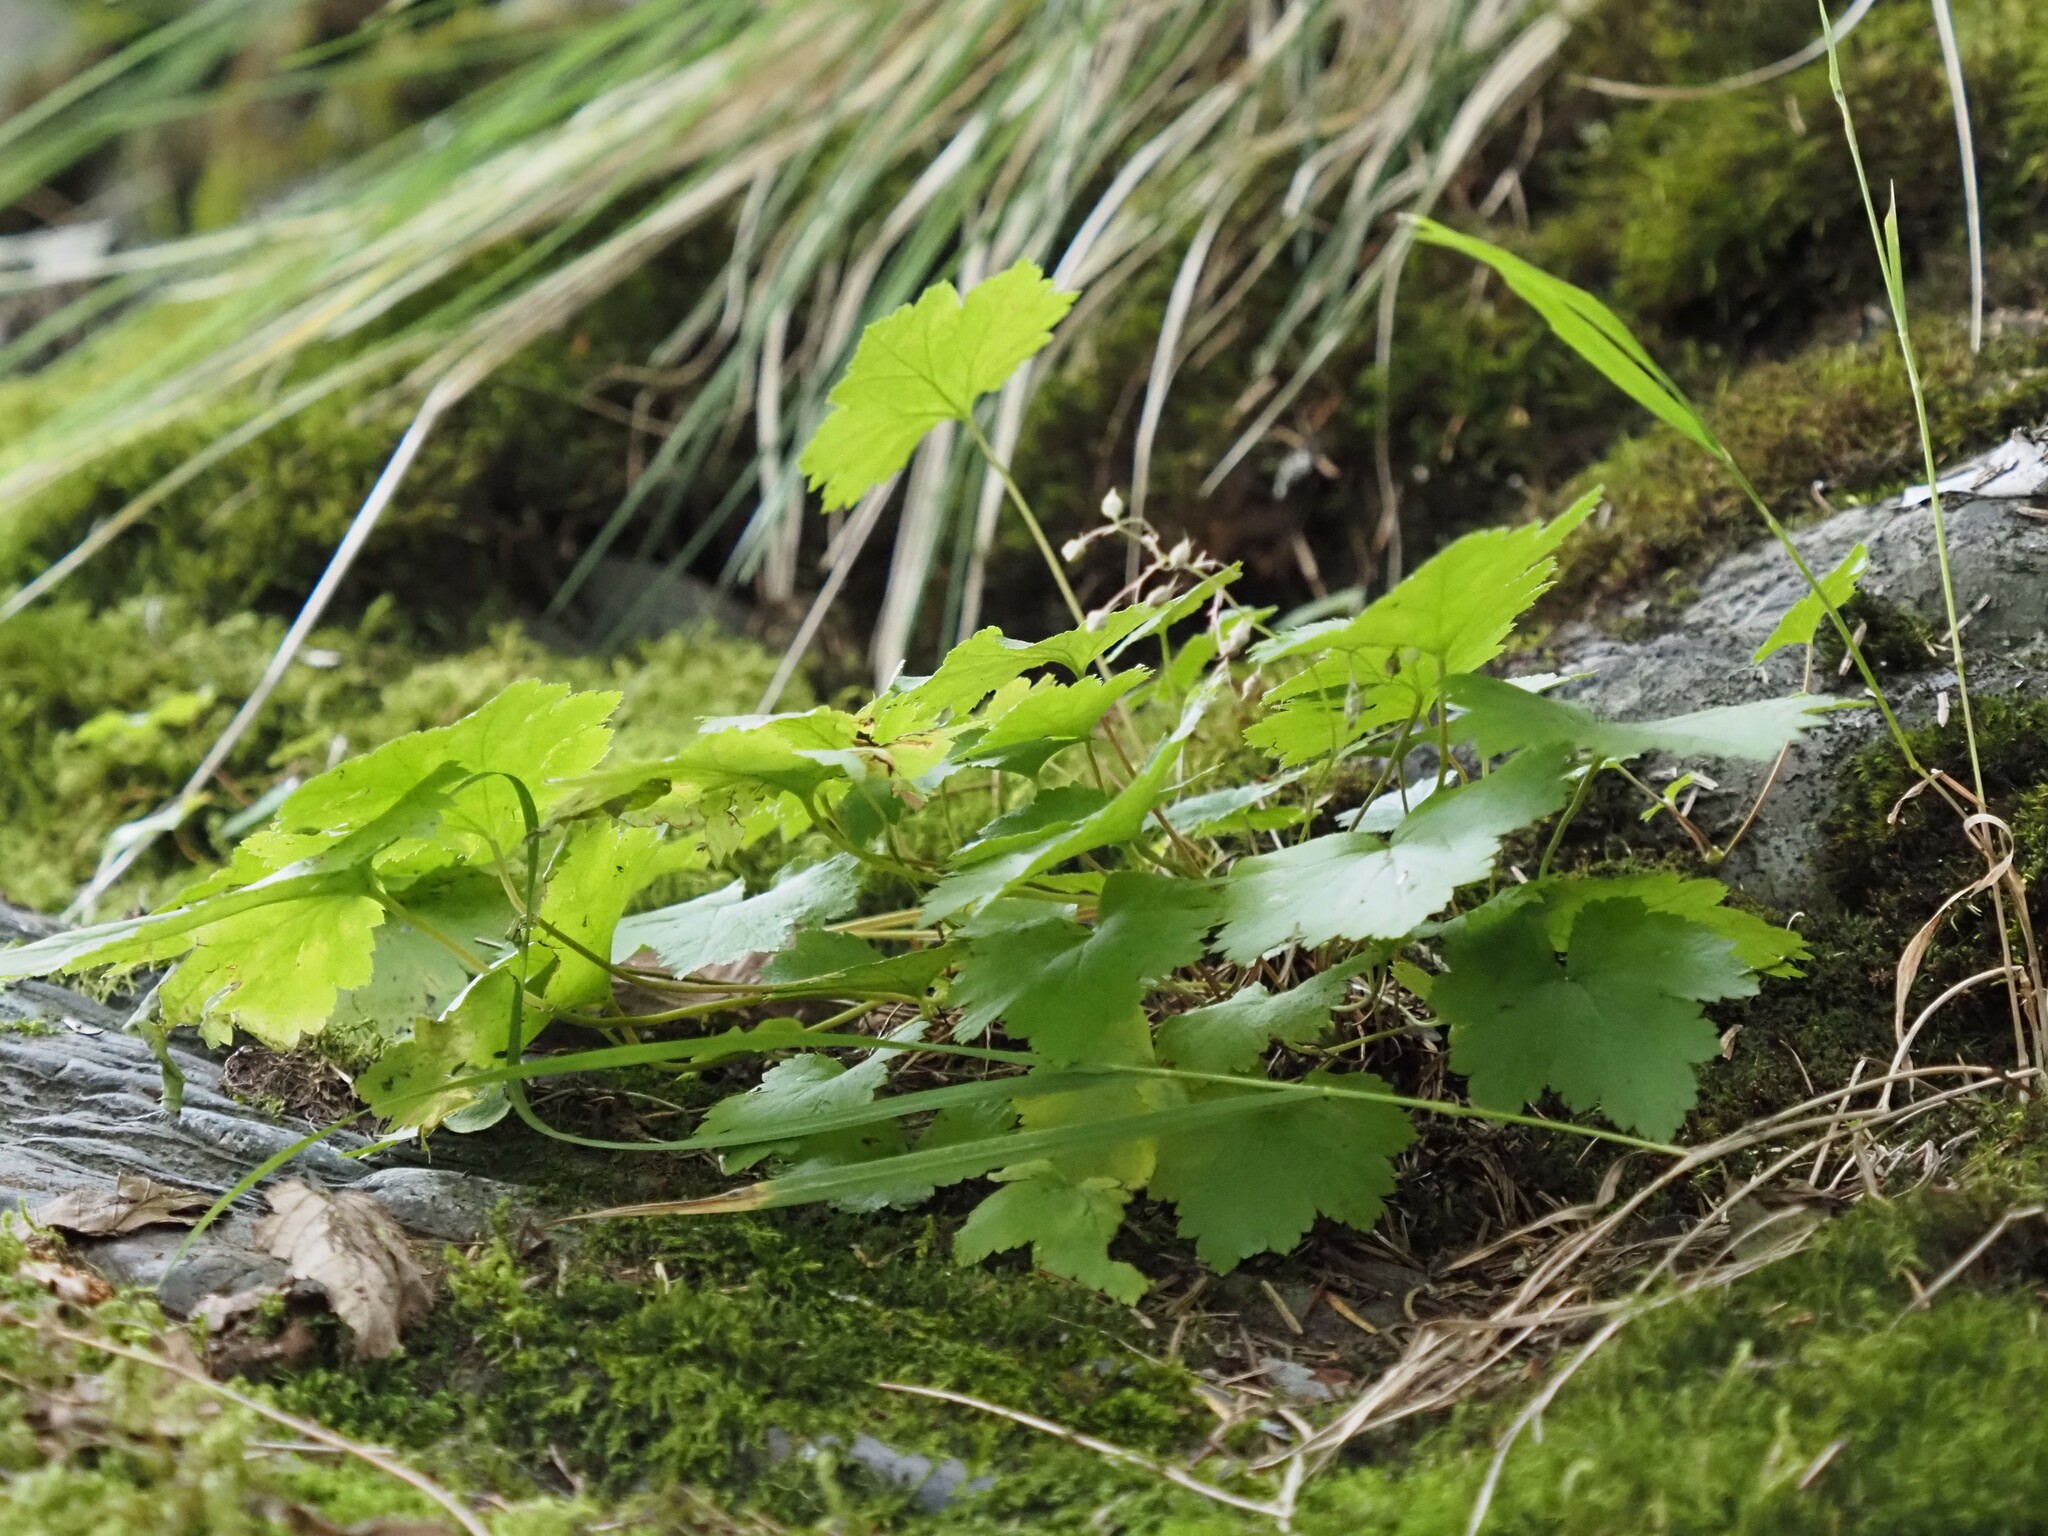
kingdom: Plantae
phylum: Tracheophyta
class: Magnoliopsida
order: Saxifragales
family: Saxifragaceae
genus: Heuchera
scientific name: Heuchera glabra
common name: Alpine alumroot
